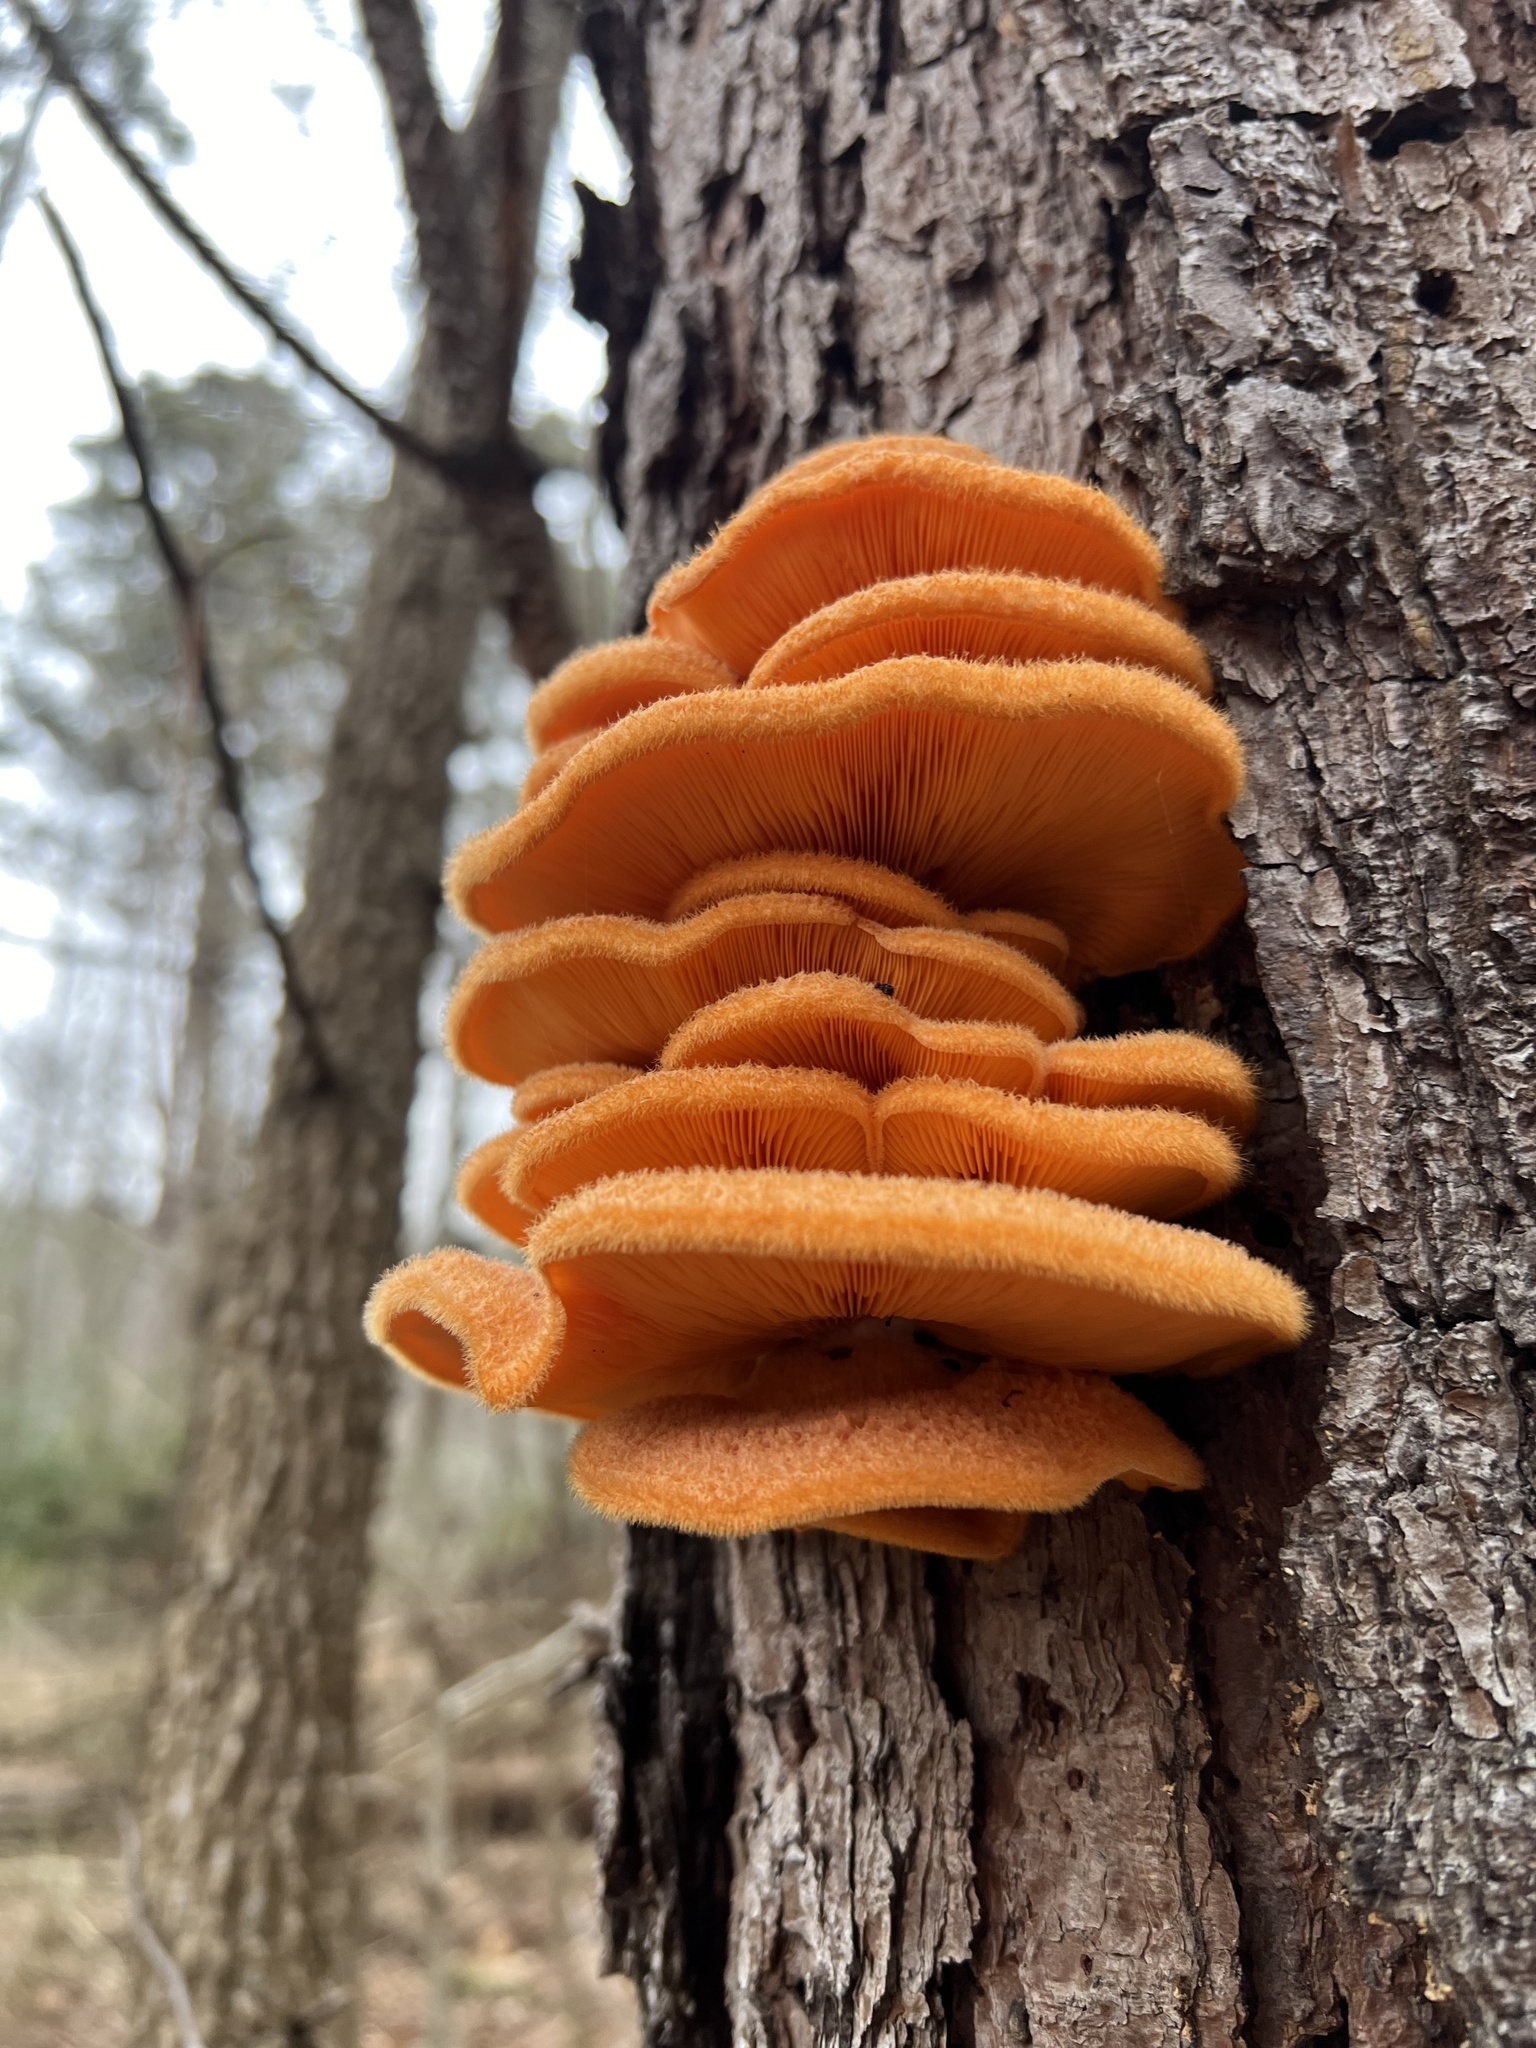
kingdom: Fungi
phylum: Basidiomycota
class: Agaricomycetes
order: Agaricales
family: Phyllotopsidaceae
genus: Phyllotopsis
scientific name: Phyllotopsis nidulans
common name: Orange mock oyster
